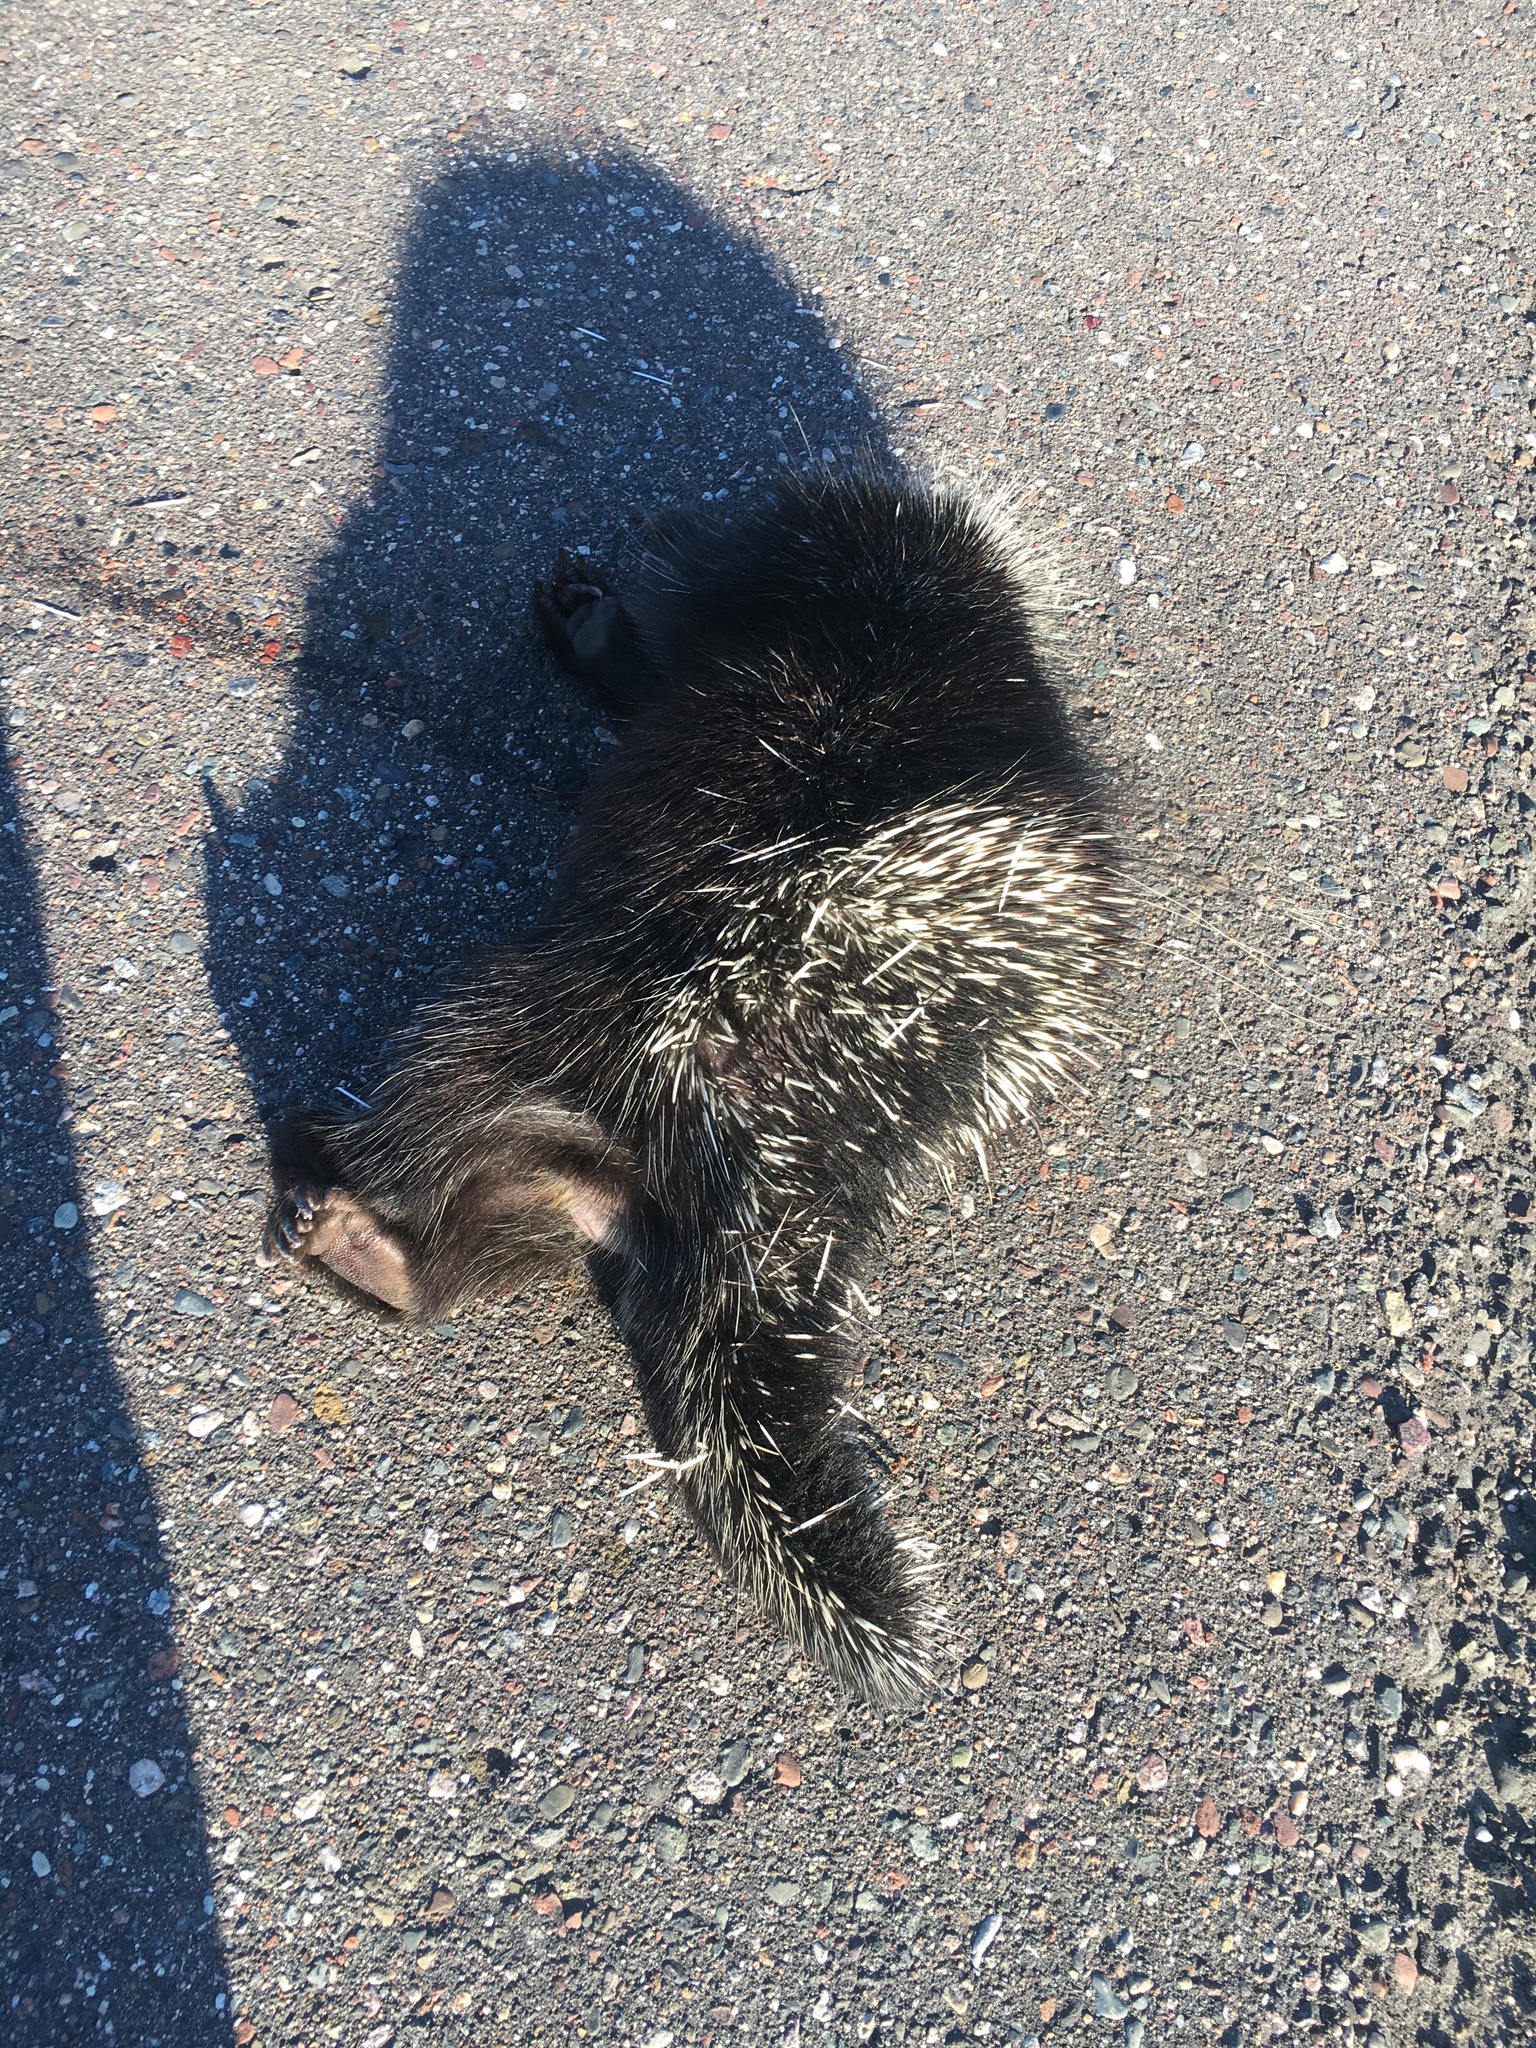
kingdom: Animalia
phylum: Chordata
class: Mammalia
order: Rodentia
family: Erethizontidae
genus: Erethizon
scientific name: Erethizon dorsatus
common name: North american porcupine
